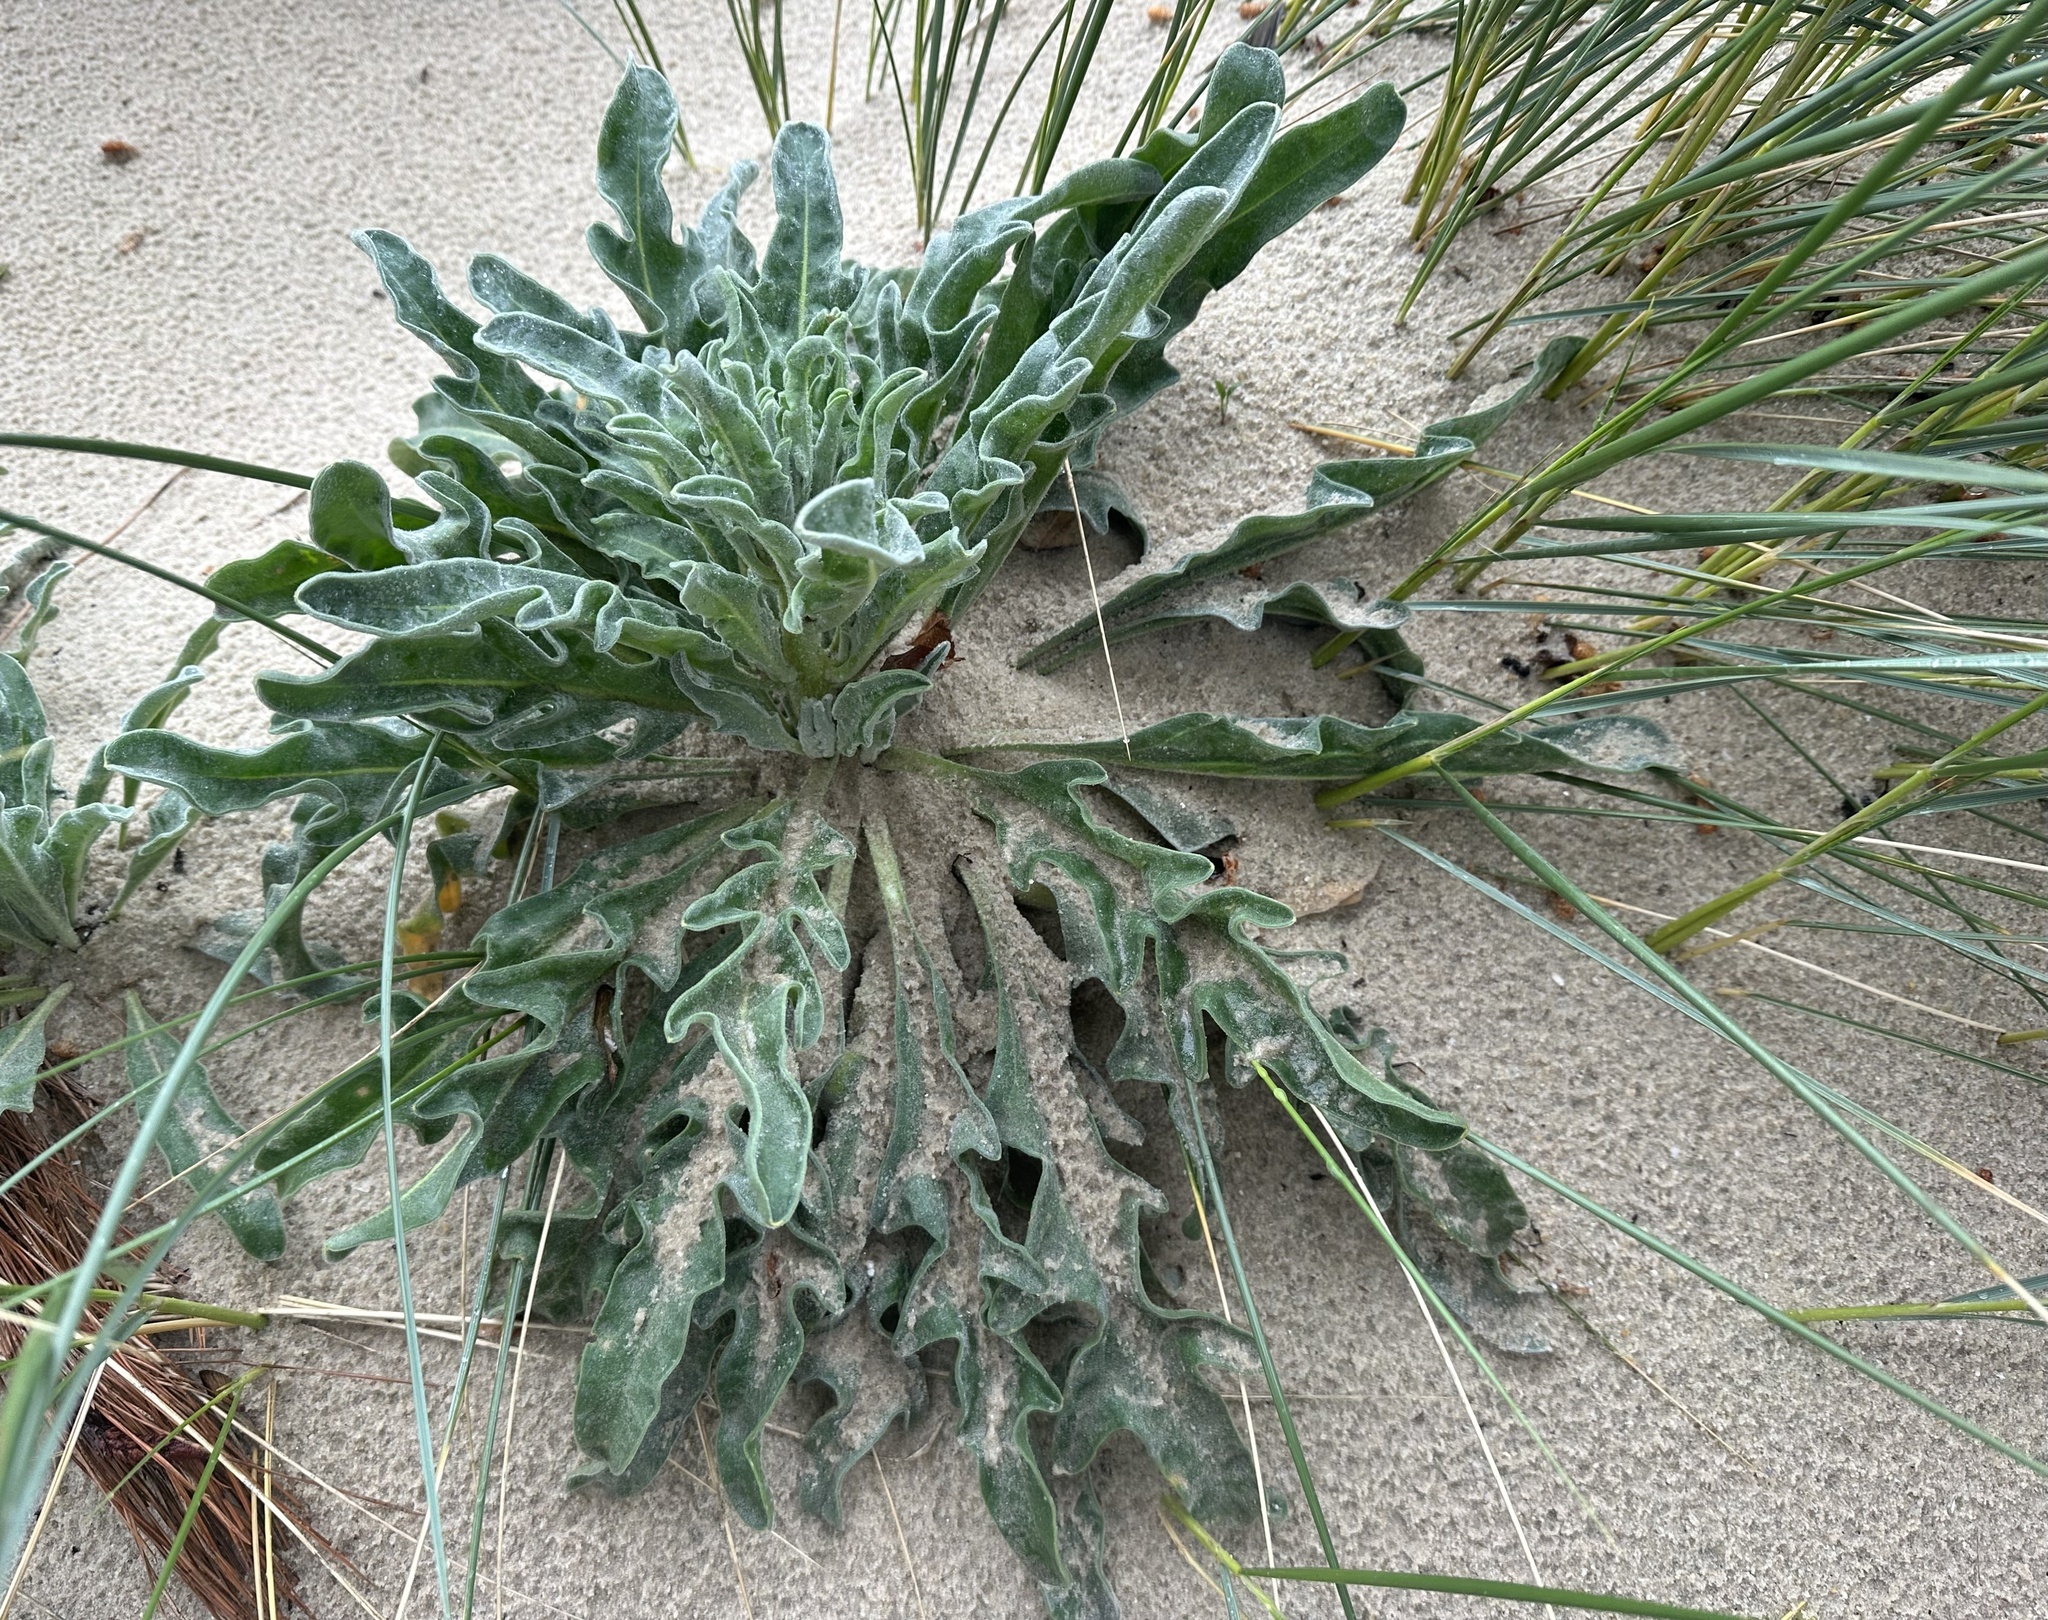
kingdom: Plantae
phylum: Tracheophyta
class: Magnoliopsida
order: Brassicales
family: Brassicaceae
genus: Matthiola
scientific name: Matthiola sinuata
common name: Sea stock
